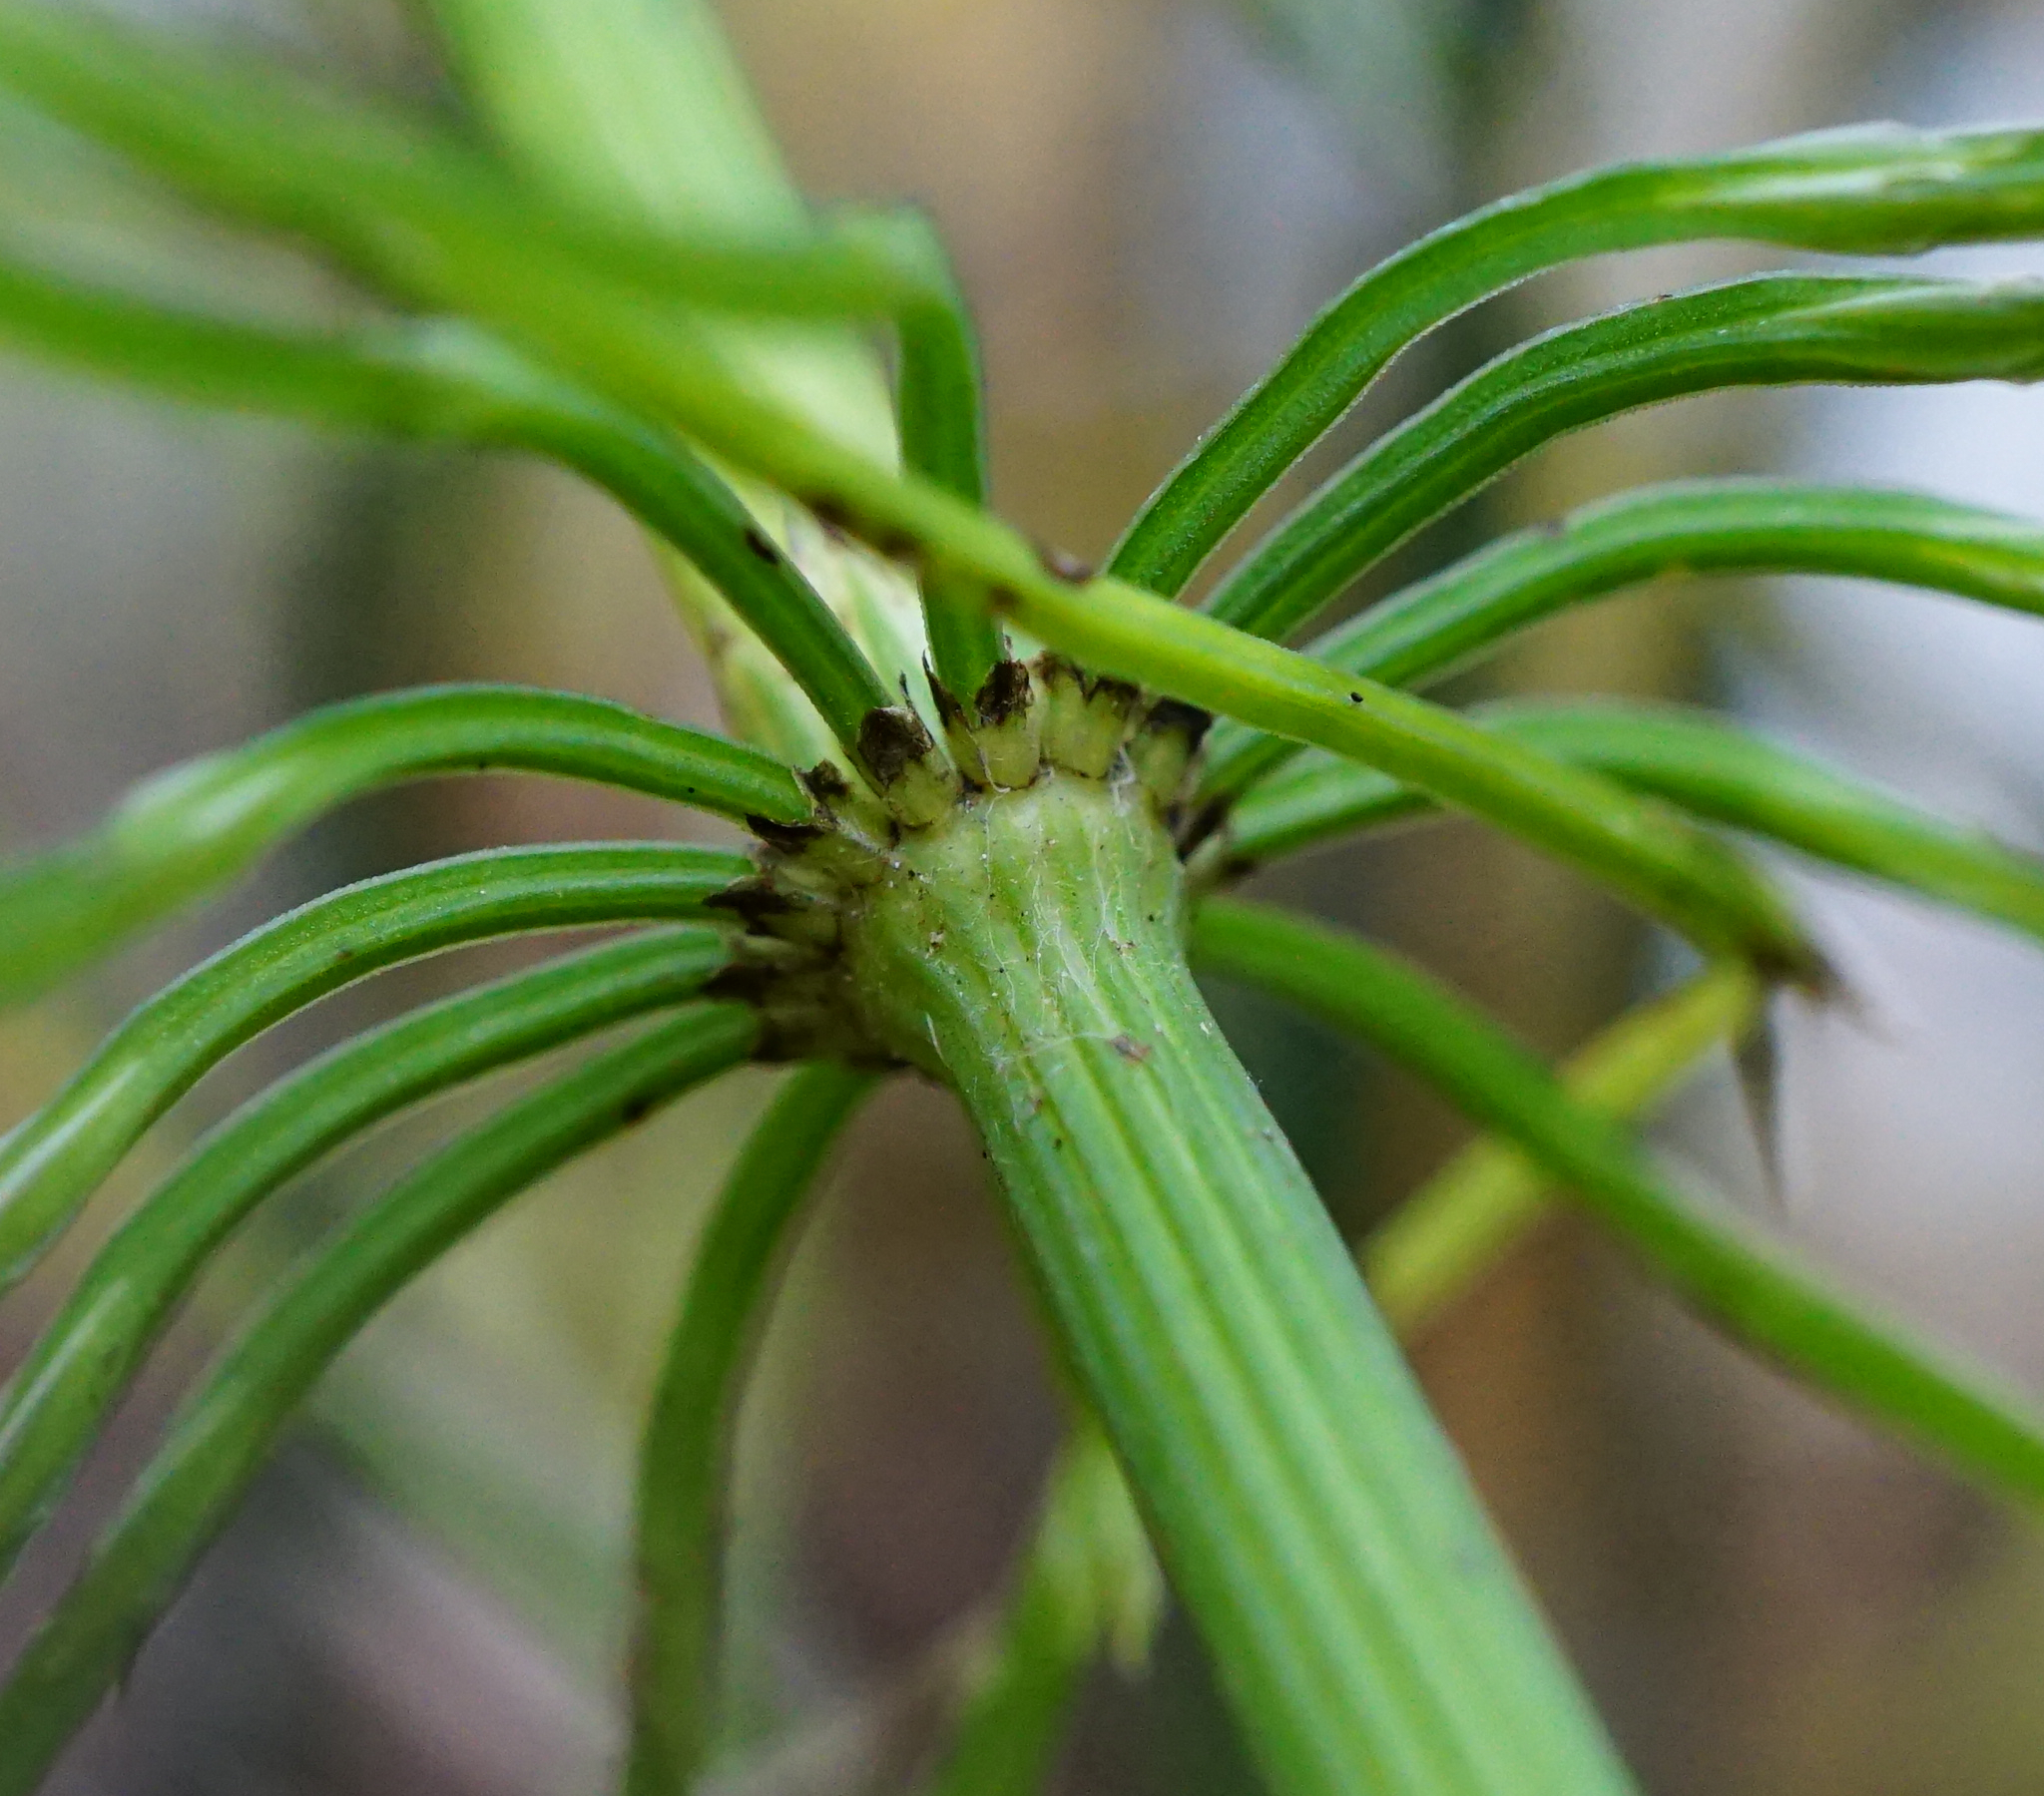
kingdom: Plantae
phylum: Tracheophyta
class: Polypodiopsida
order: Equisetales
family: Equisetaceae
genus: Equisetum
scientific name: Equisetum arvense
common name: Field horsetail
